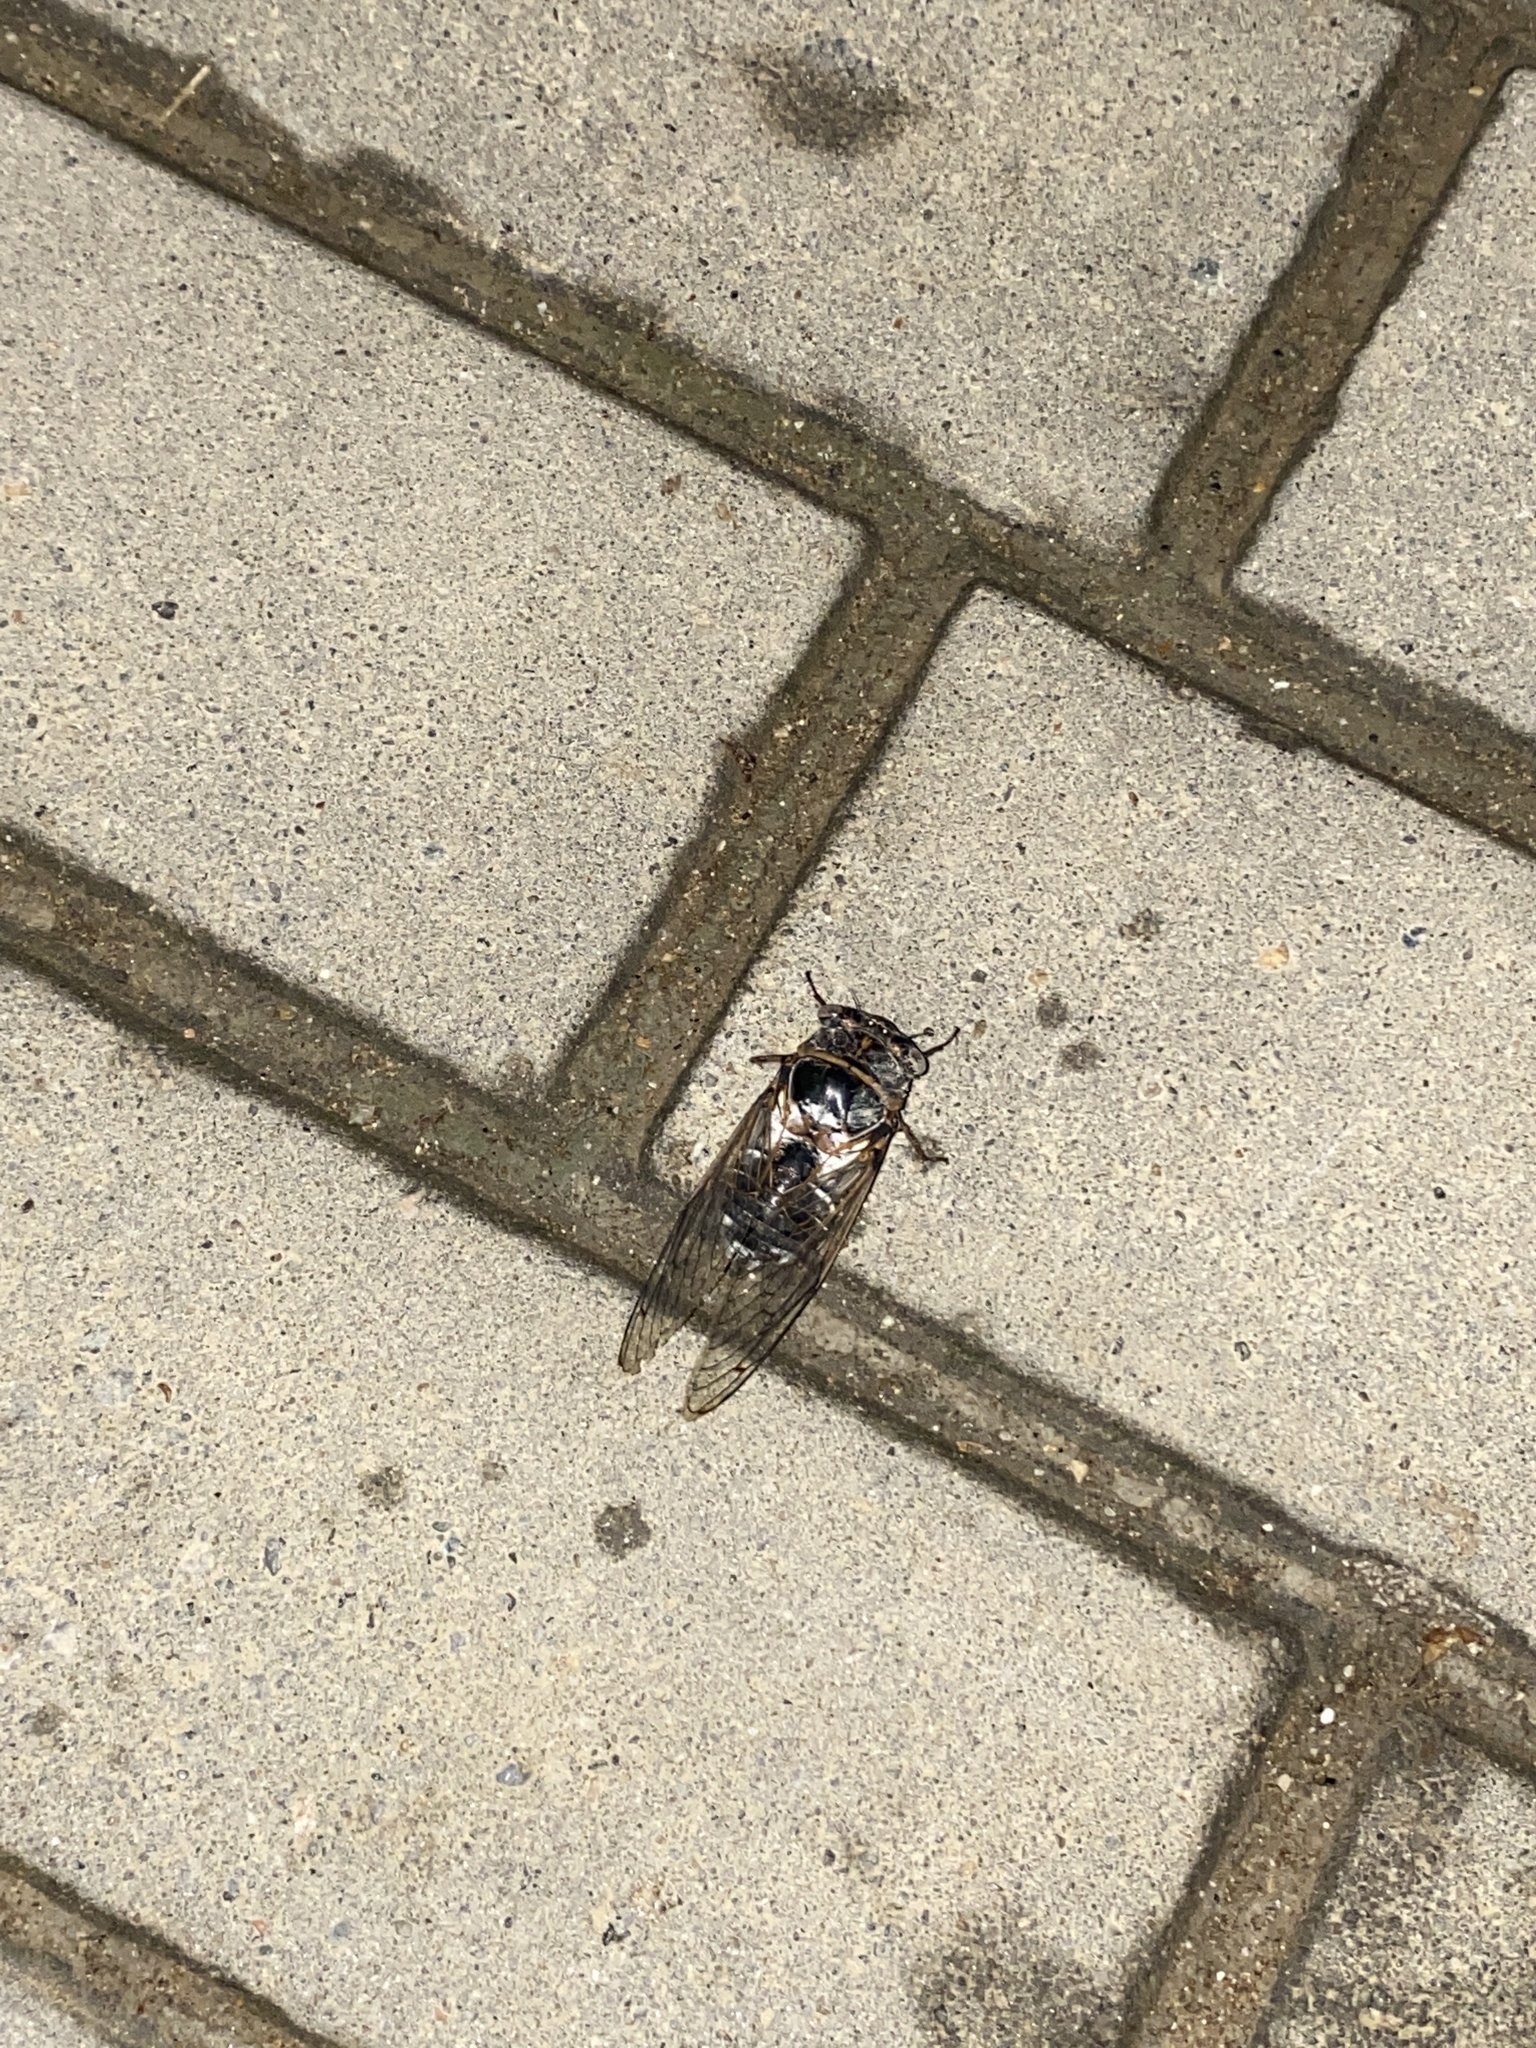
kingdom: Animalia
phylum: Arthropoda
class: Insecta
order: Hemiptera
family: Cicadidae
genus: Lyristes
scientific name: Lyristes plebejus
